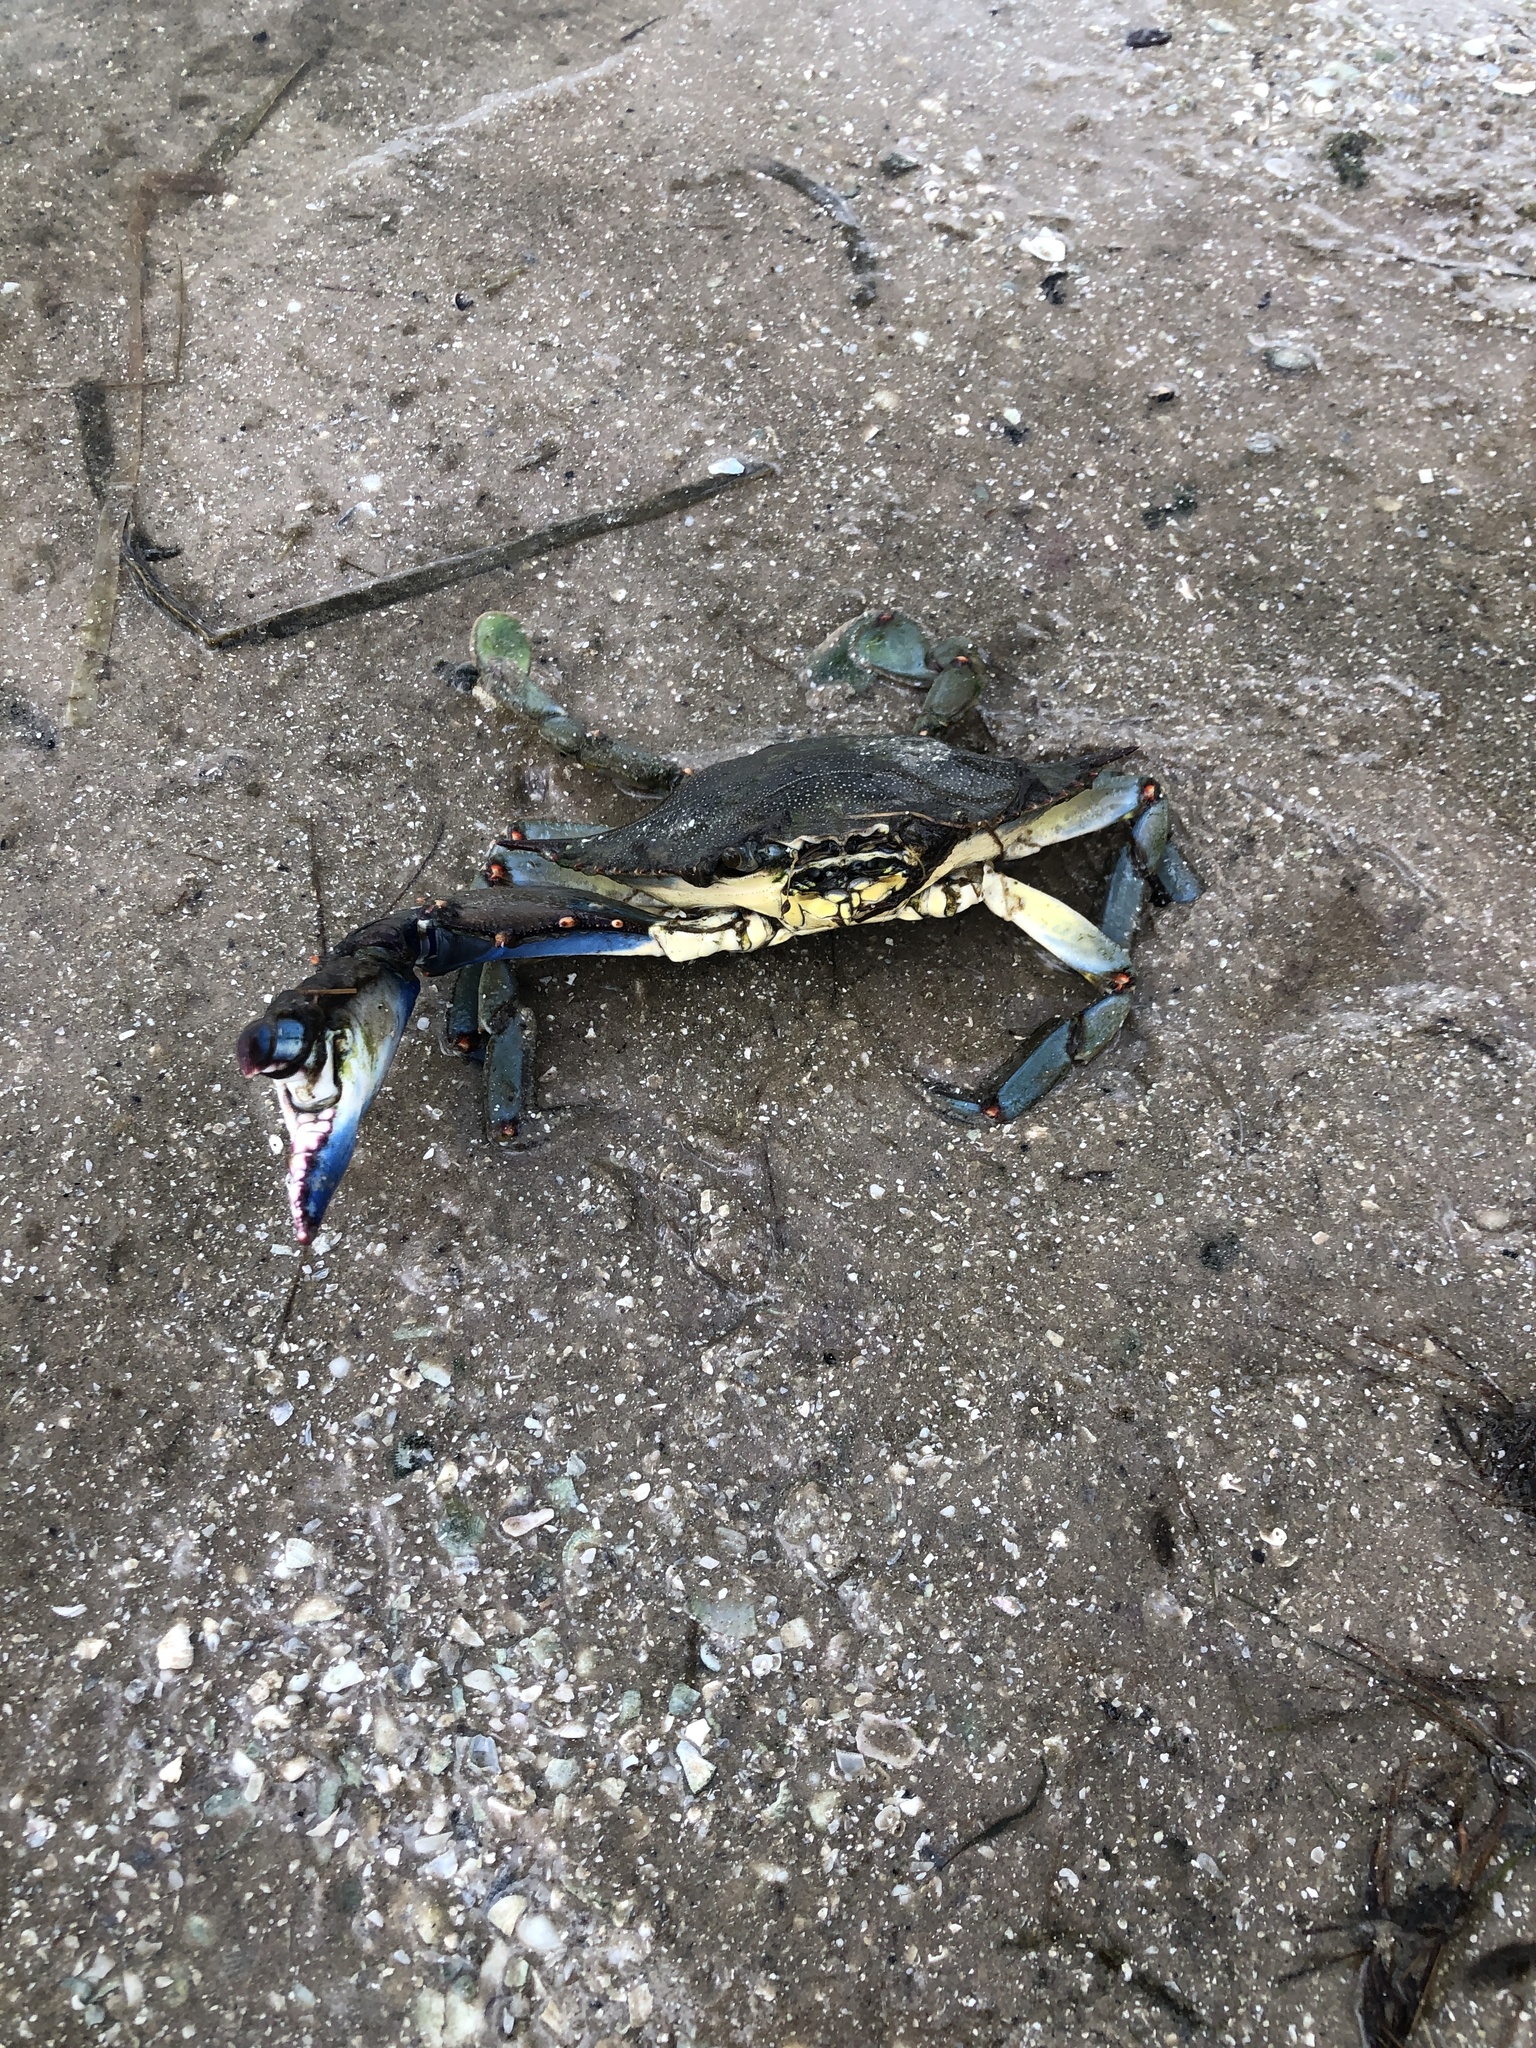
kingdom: Animalia
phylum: Arthropoda
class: Malacostraca
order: Decapoda
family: Portunidae
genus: Callinectes
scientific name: Callinectes sapidus
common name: Blue crab
